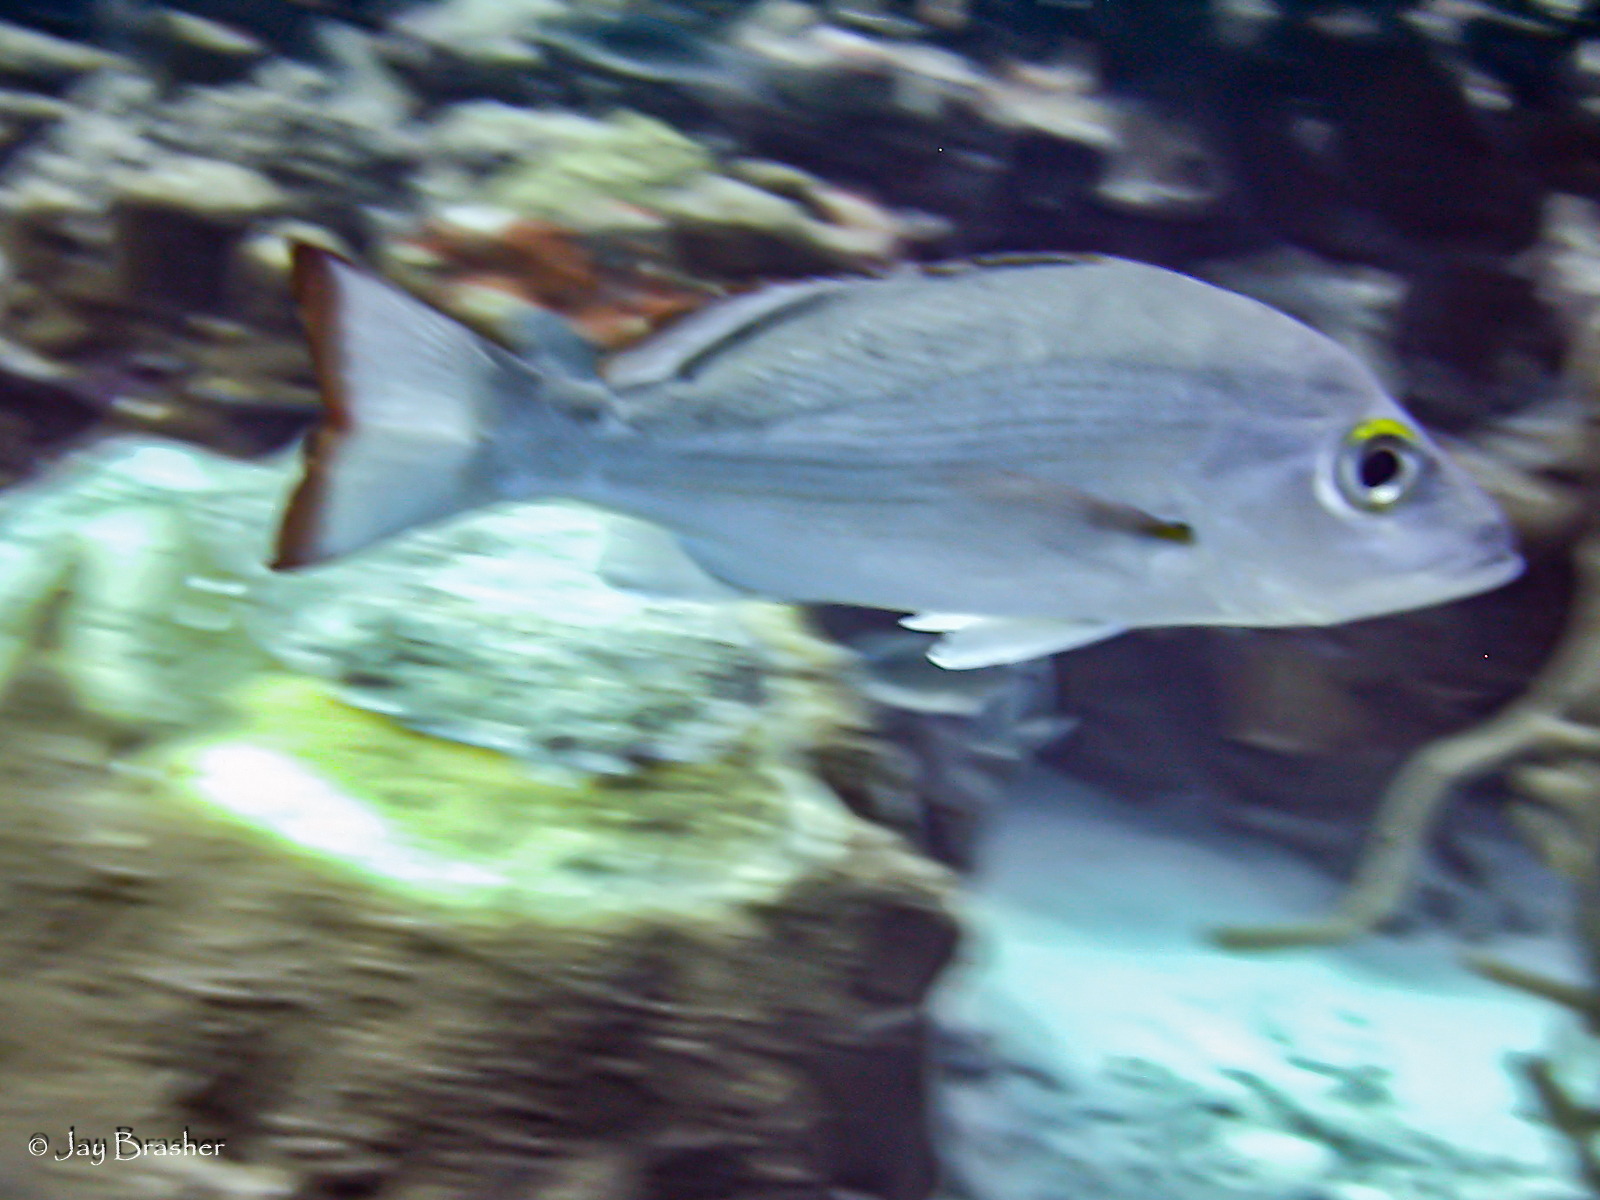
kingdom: Animalia
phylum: Chordata
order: Perciformes
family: Lutjanidae
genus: Lutjanus
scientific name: Lutjanus mahogoni
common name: Spot snapper
